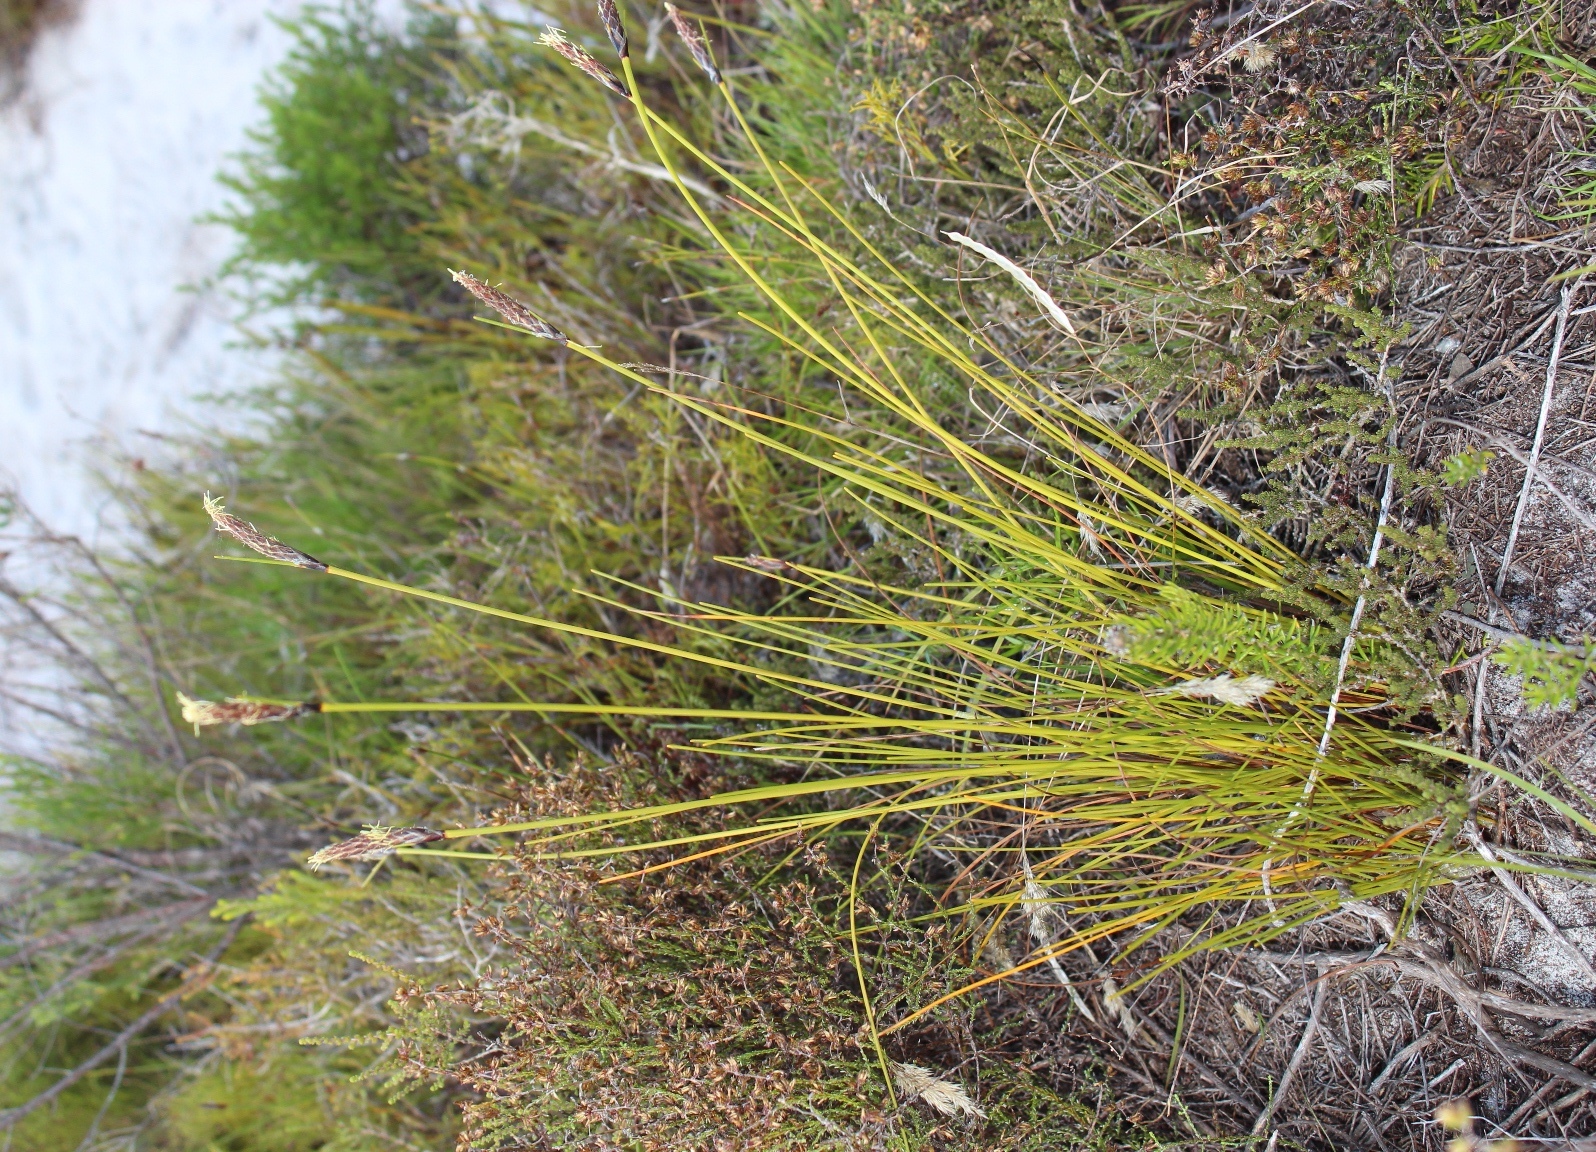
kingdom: Plantae
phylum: Tracheophyta
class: Liliopsida
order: Poales
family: Cyperaceae
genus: Ficinia
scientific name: Ficinia deusta
